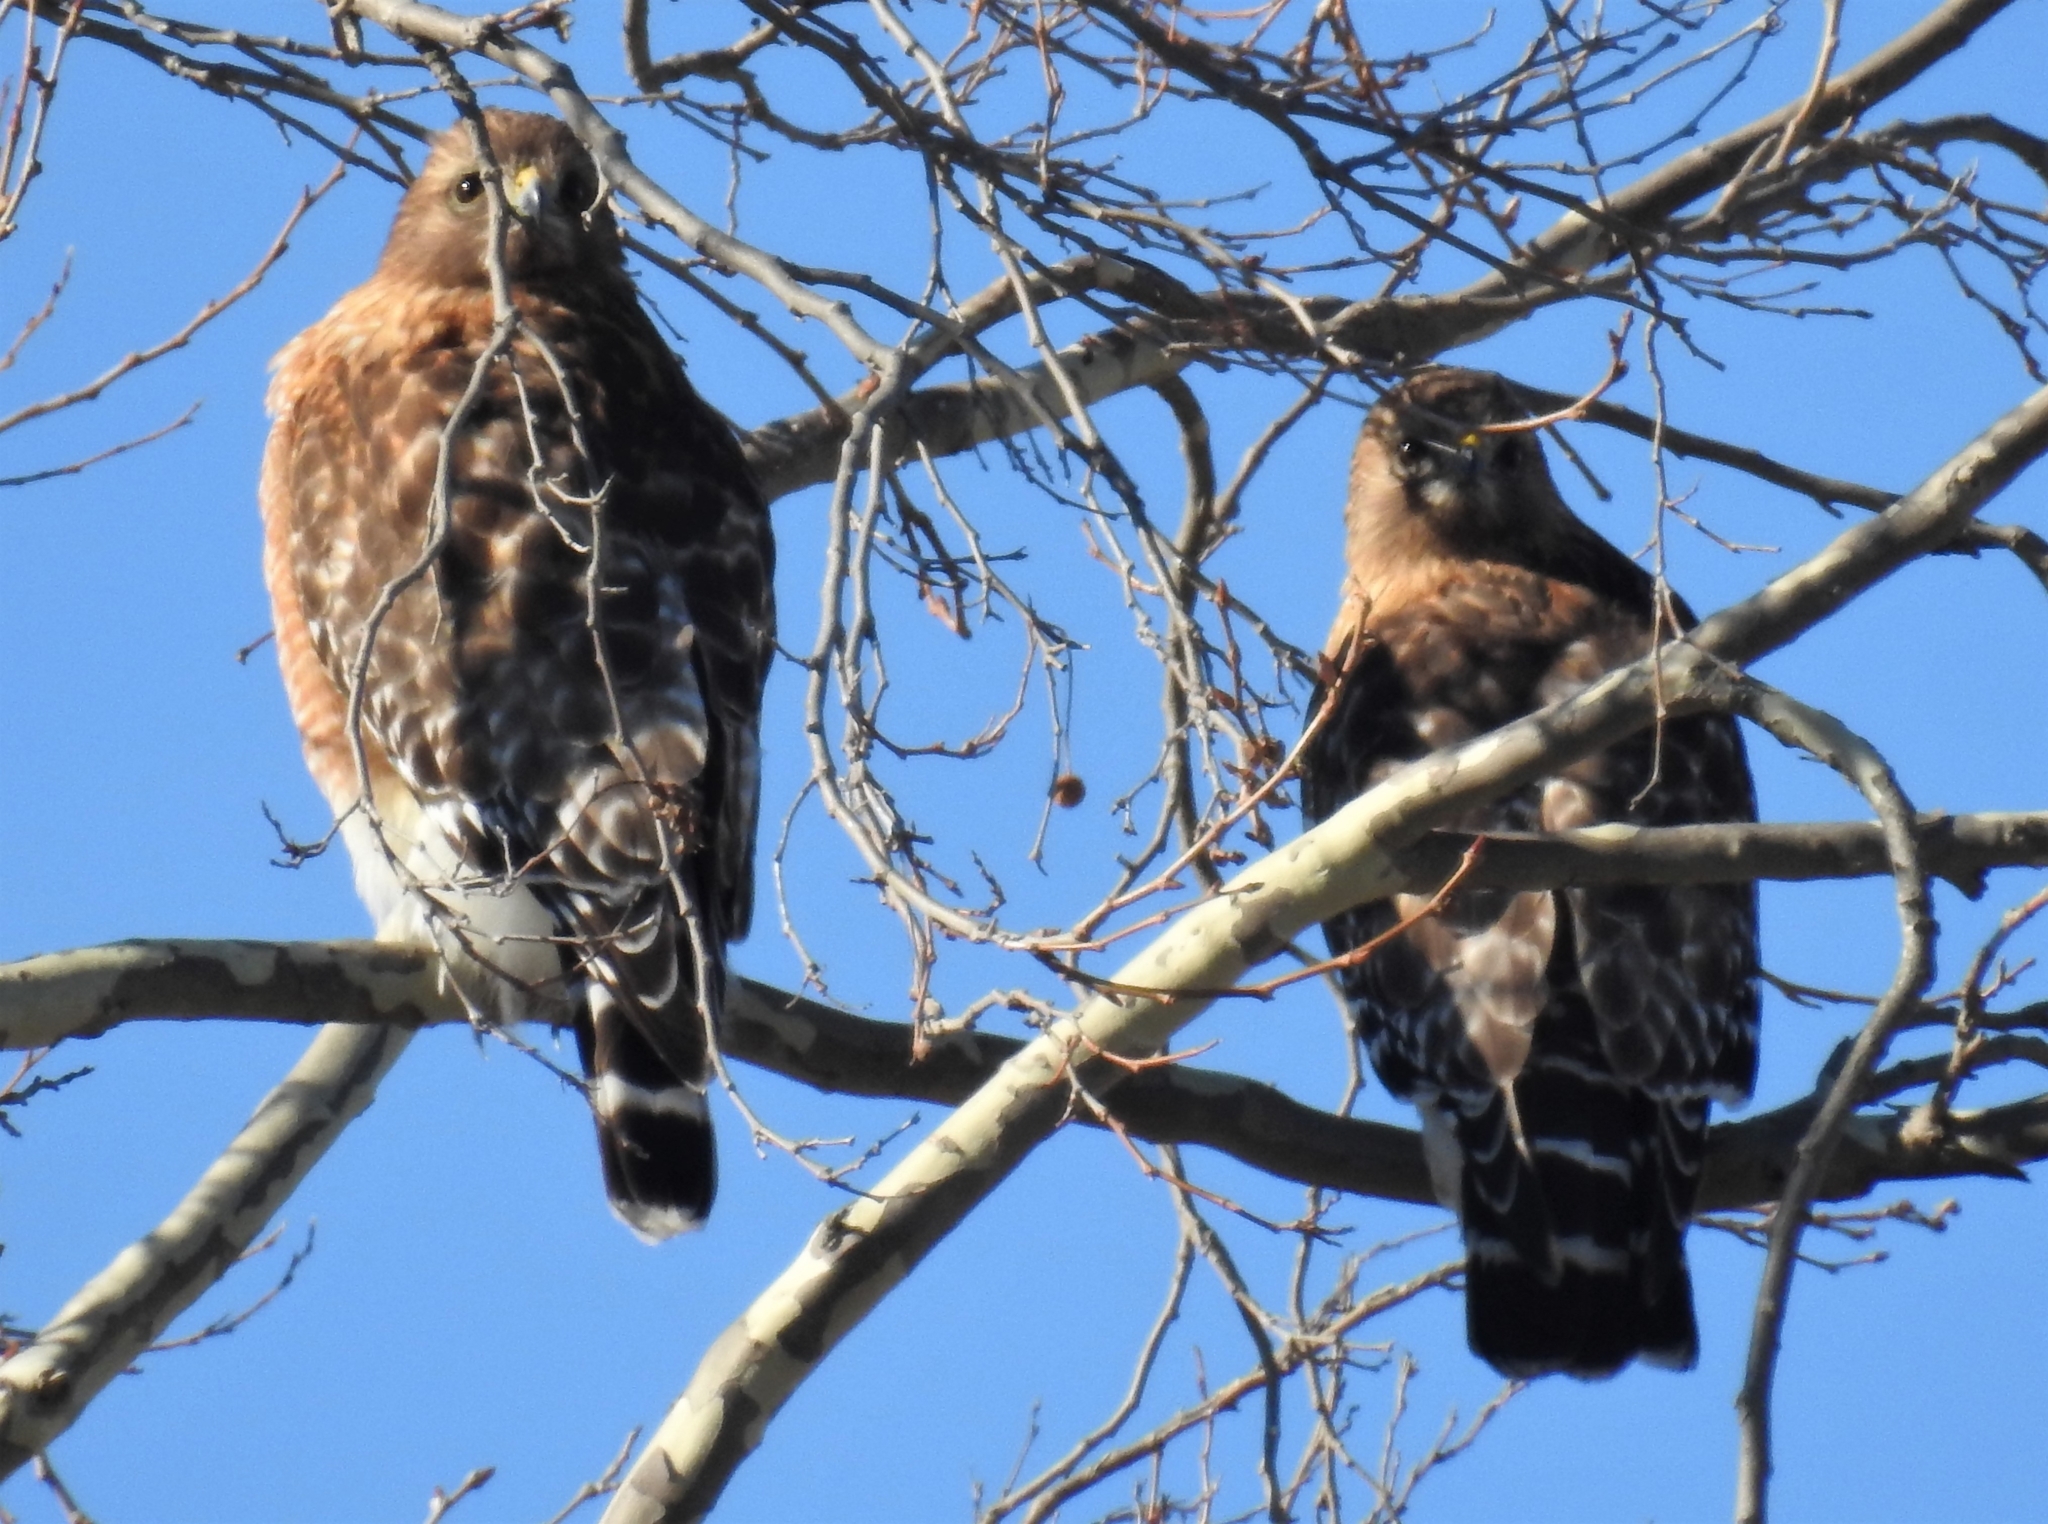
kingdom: Animalia
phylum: Chordata
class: Aves
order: Accipitriformes
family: Accipitridae
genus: Buteo
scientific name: Buteo lineatus
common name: Red-shouldered hawk
